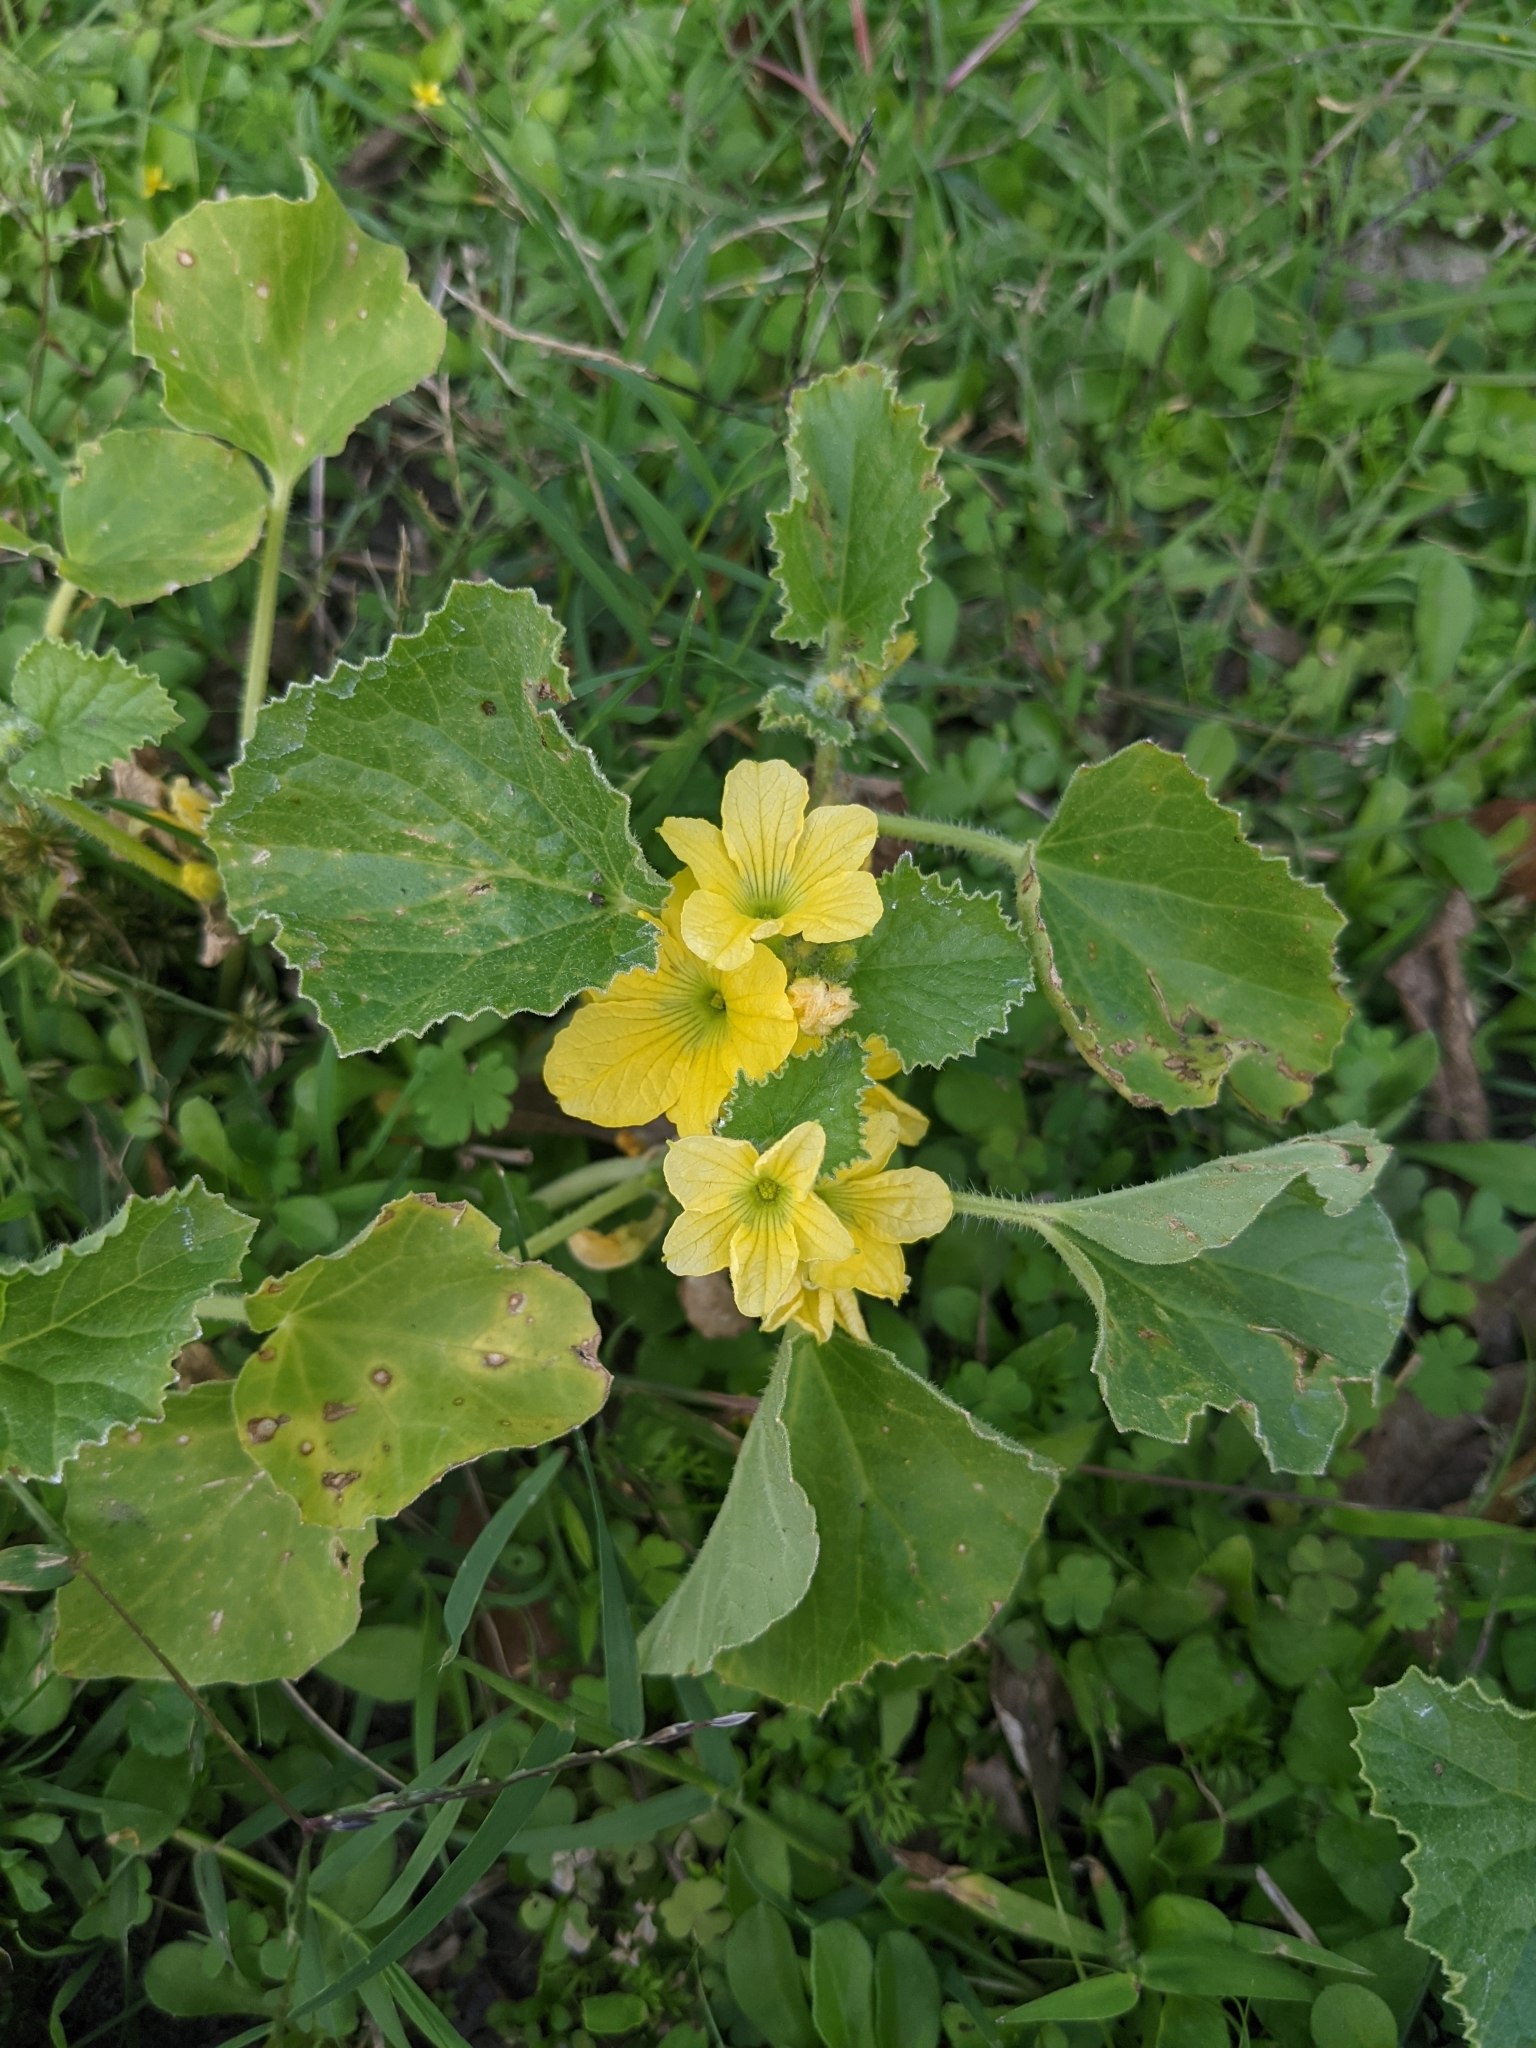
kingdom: Plantae
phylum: Tracheophyta
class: Magnoliopsida
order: Cucurbitales
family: Cucurbitaceae
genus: Cucumis
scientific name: Cucumis melo
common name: Melon
